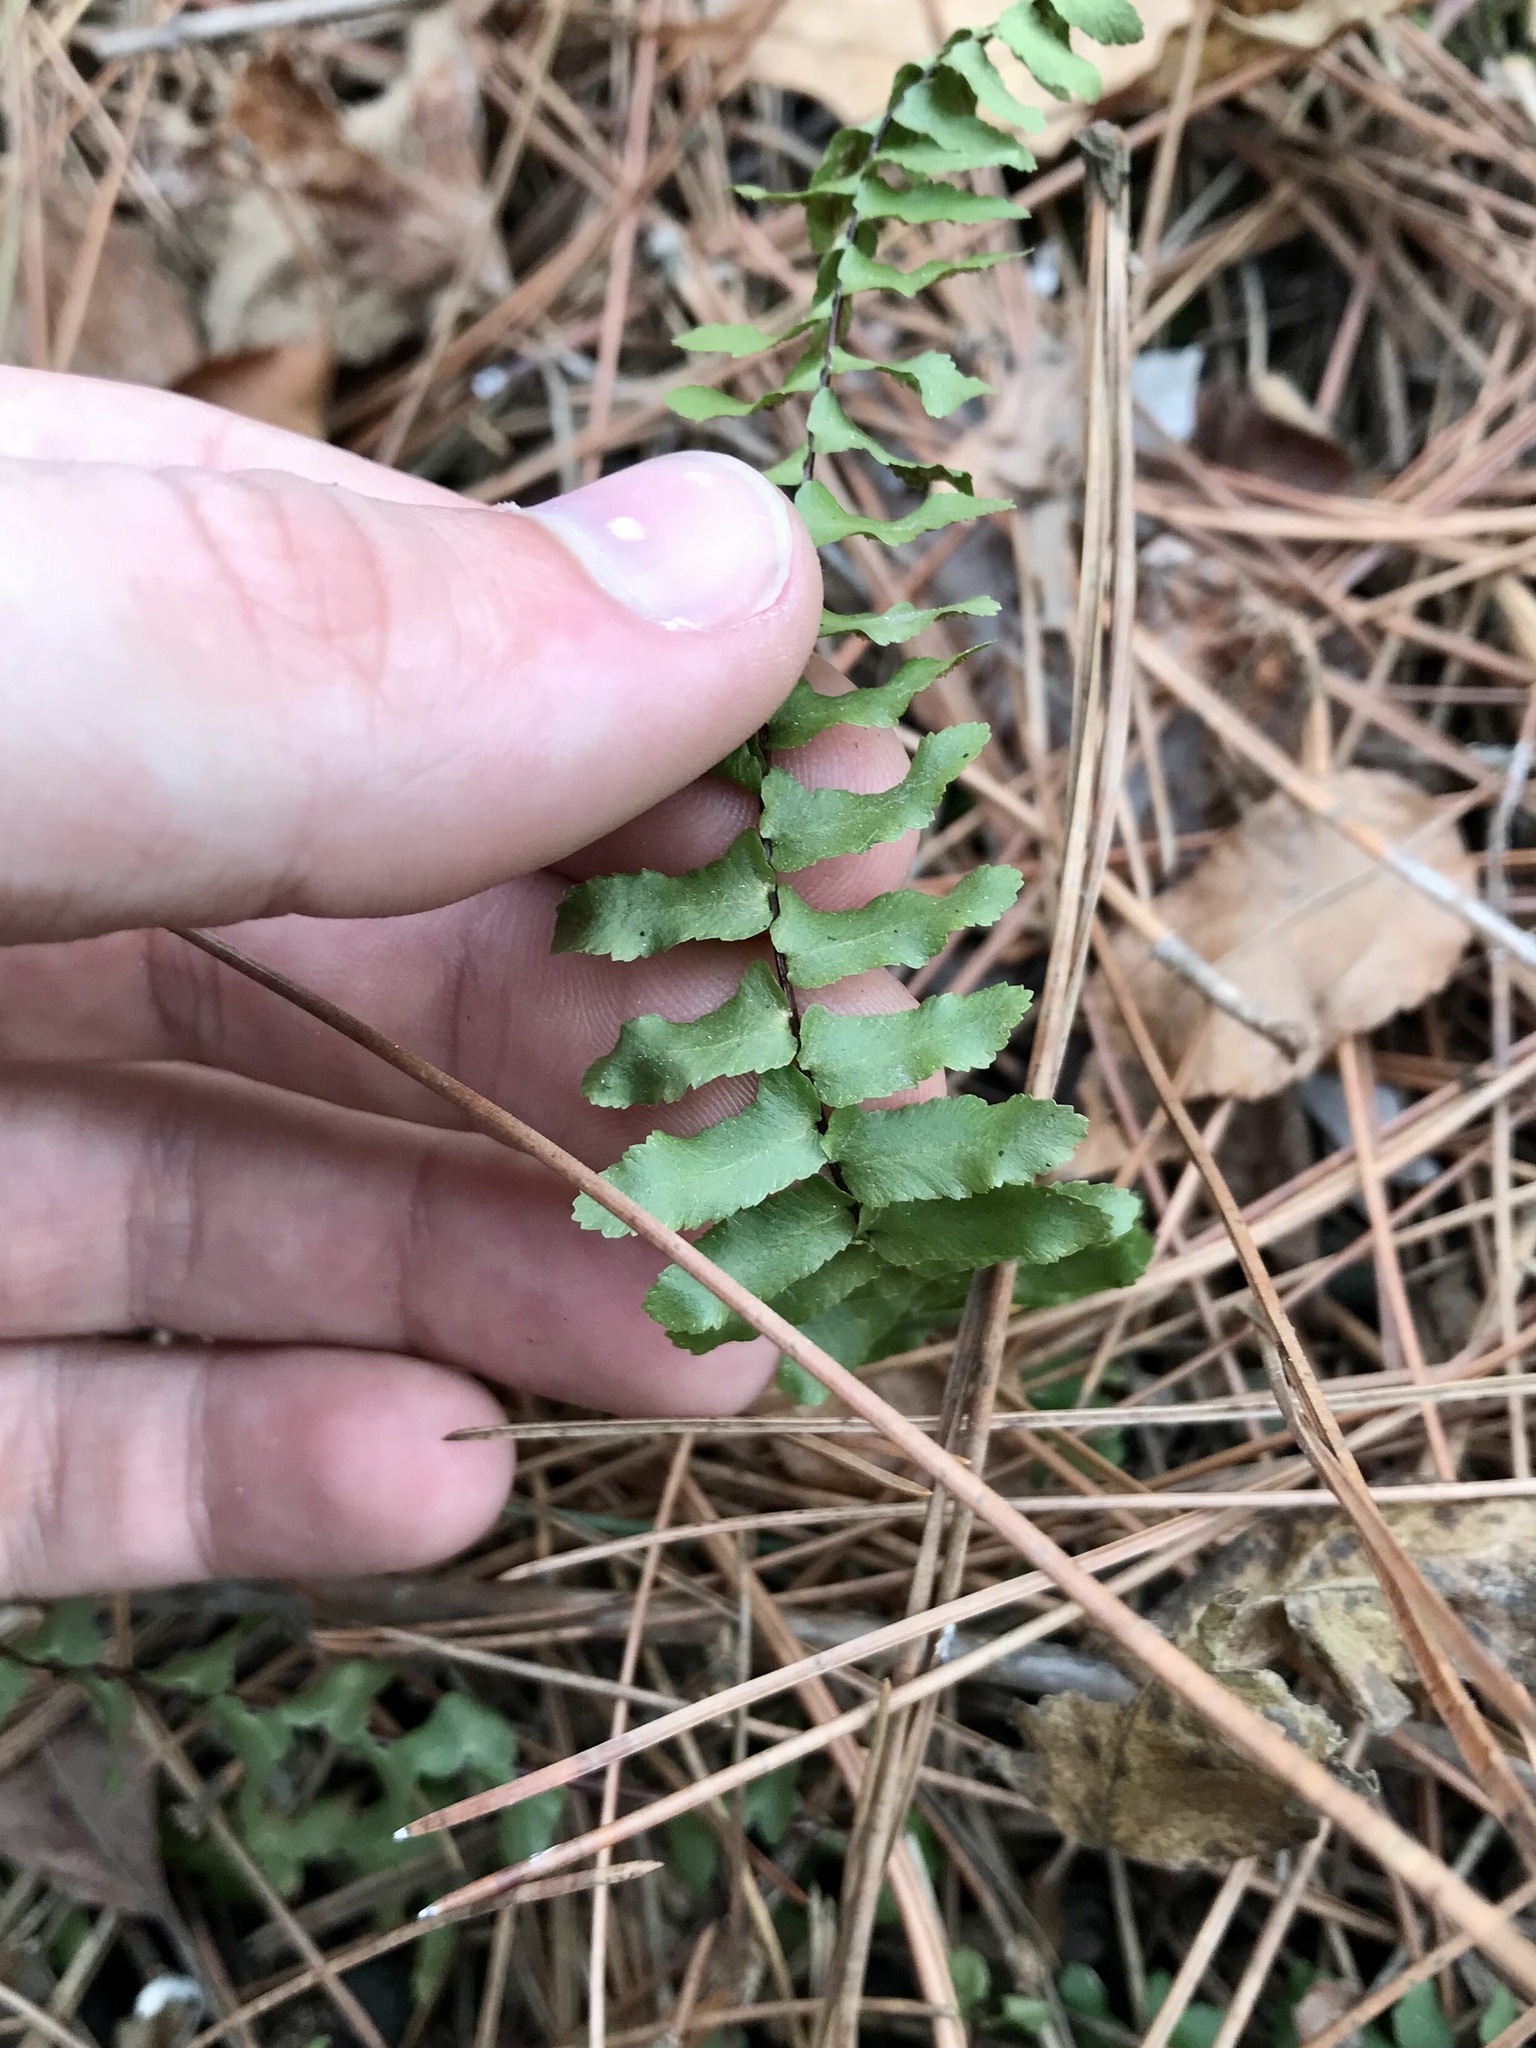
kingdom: Plantae
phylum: Tracheophyta
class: Polypodiopsida
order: Polypodiales
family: Aspleniaceae
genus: Asplenium
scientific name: Asplenium platyneuron
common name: Ebony spleenwort
